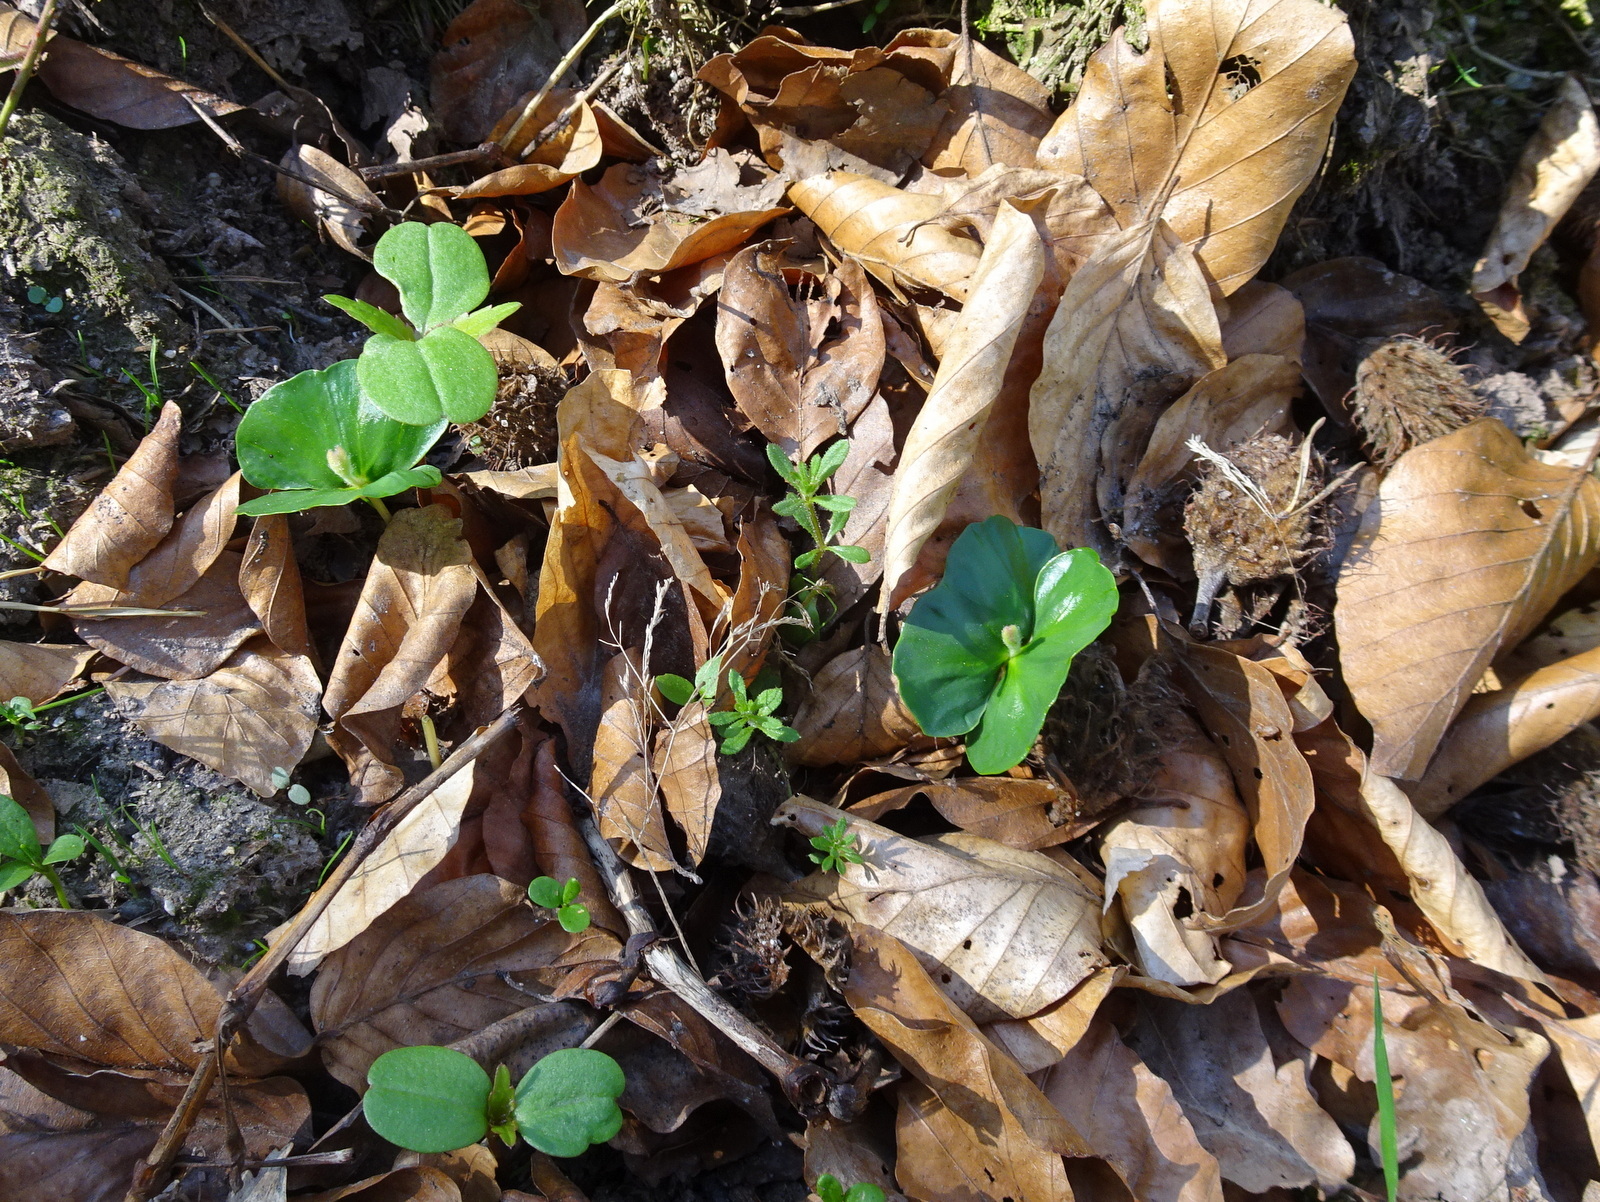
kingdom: Plantae
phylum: Tracheophyta
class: Magnoliopsida
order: Fagales
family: Fagaceae
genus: Fagus
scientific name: Fagus sylvatica
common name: Beech
